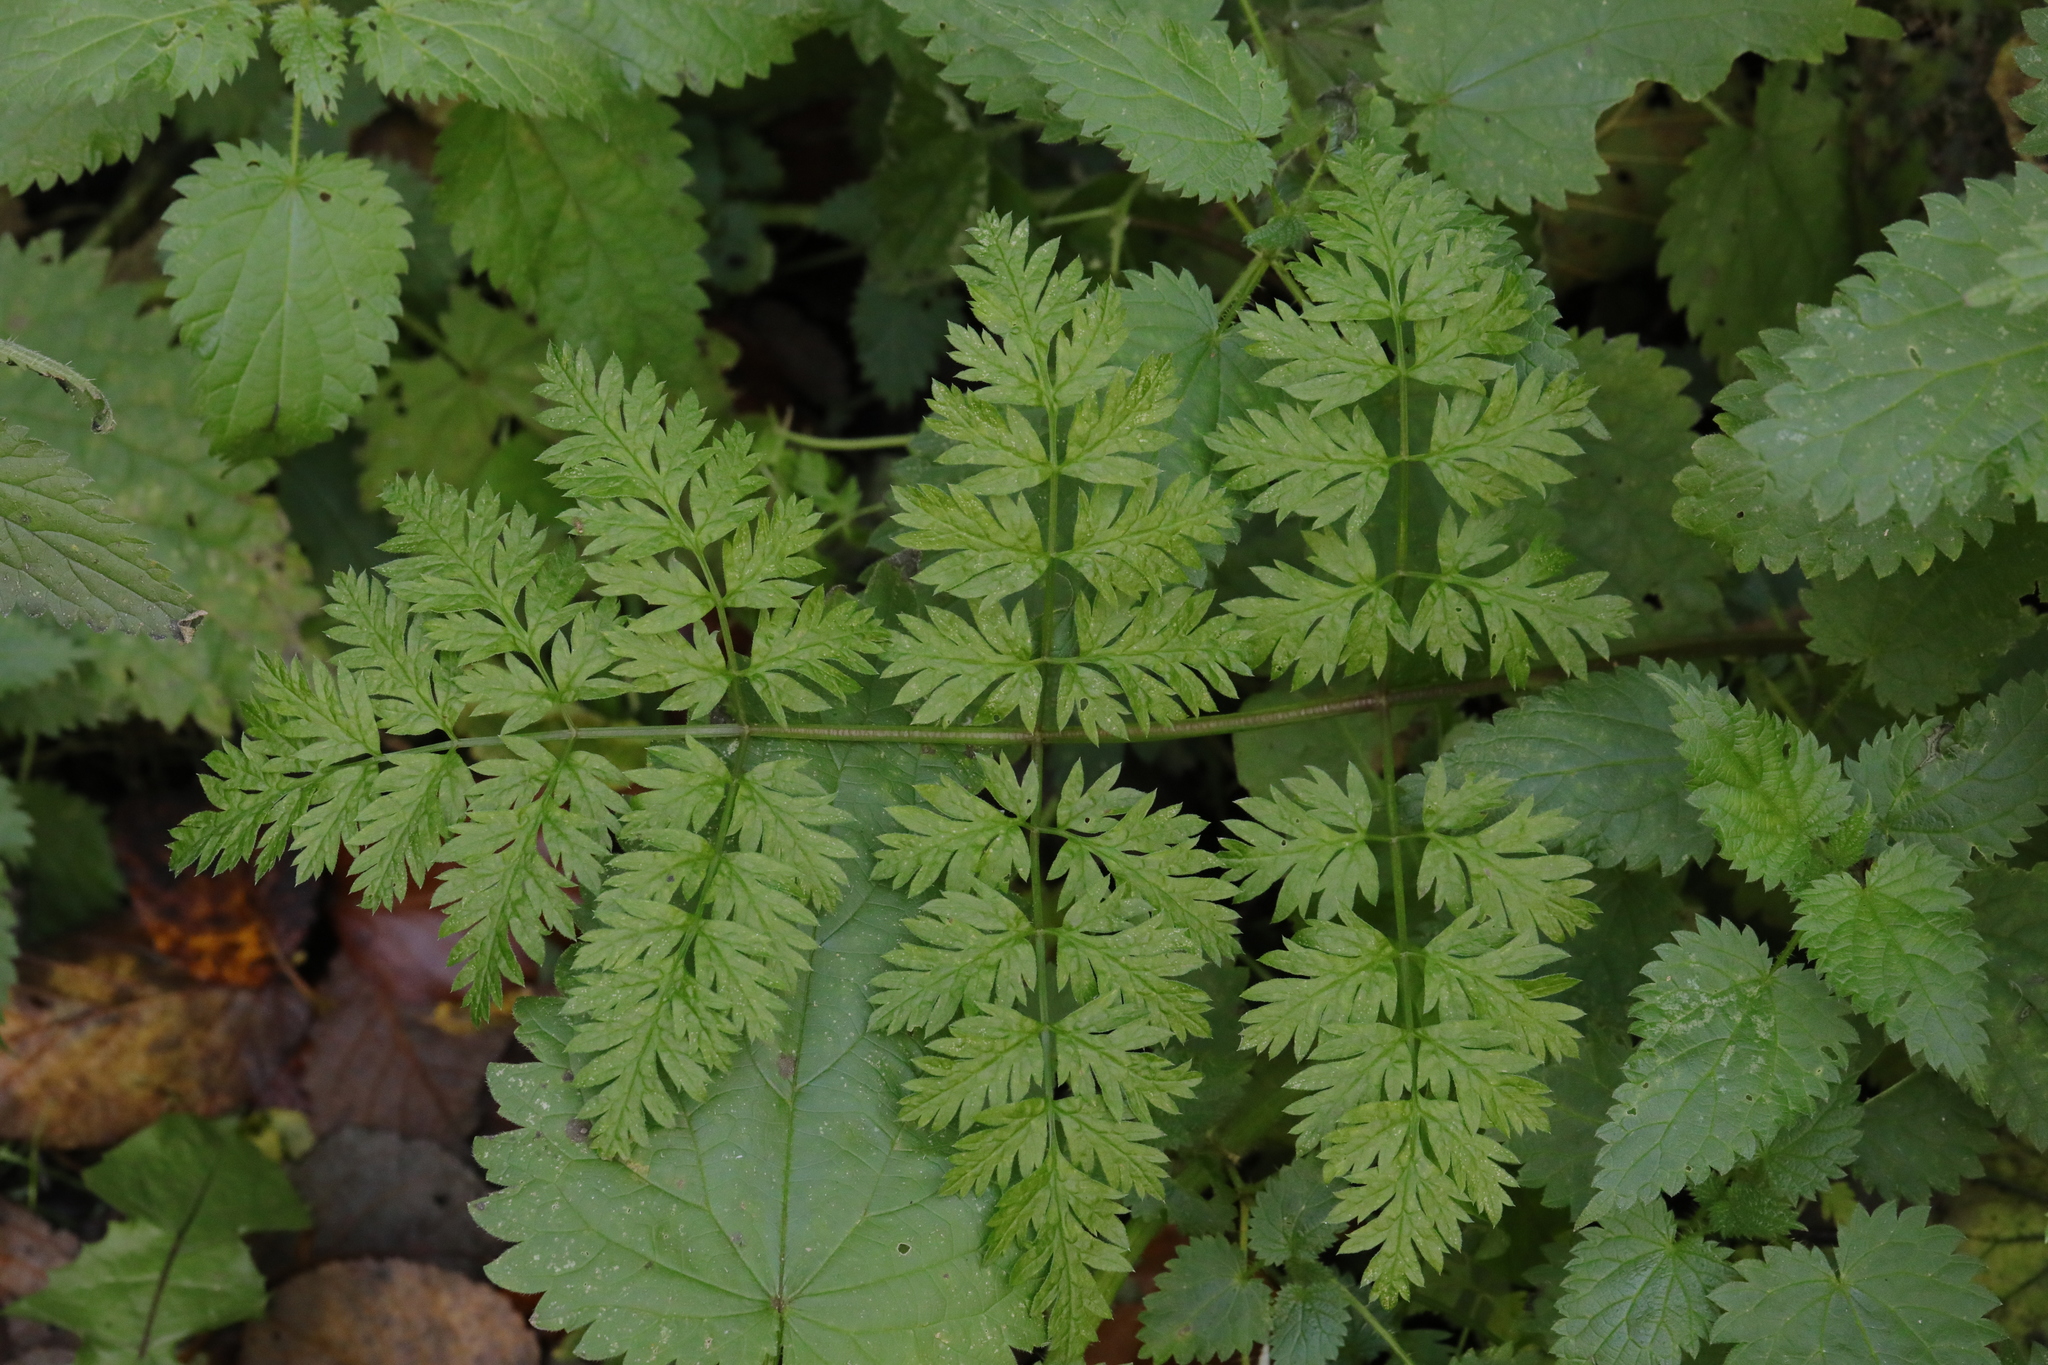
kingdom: Plantae
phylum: Tracheophyta
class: Magnoliopsida
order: Apiales
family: Apiaceae
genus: Anthriscus
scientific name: Anthriscus sylvestris
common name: Cow parsley
